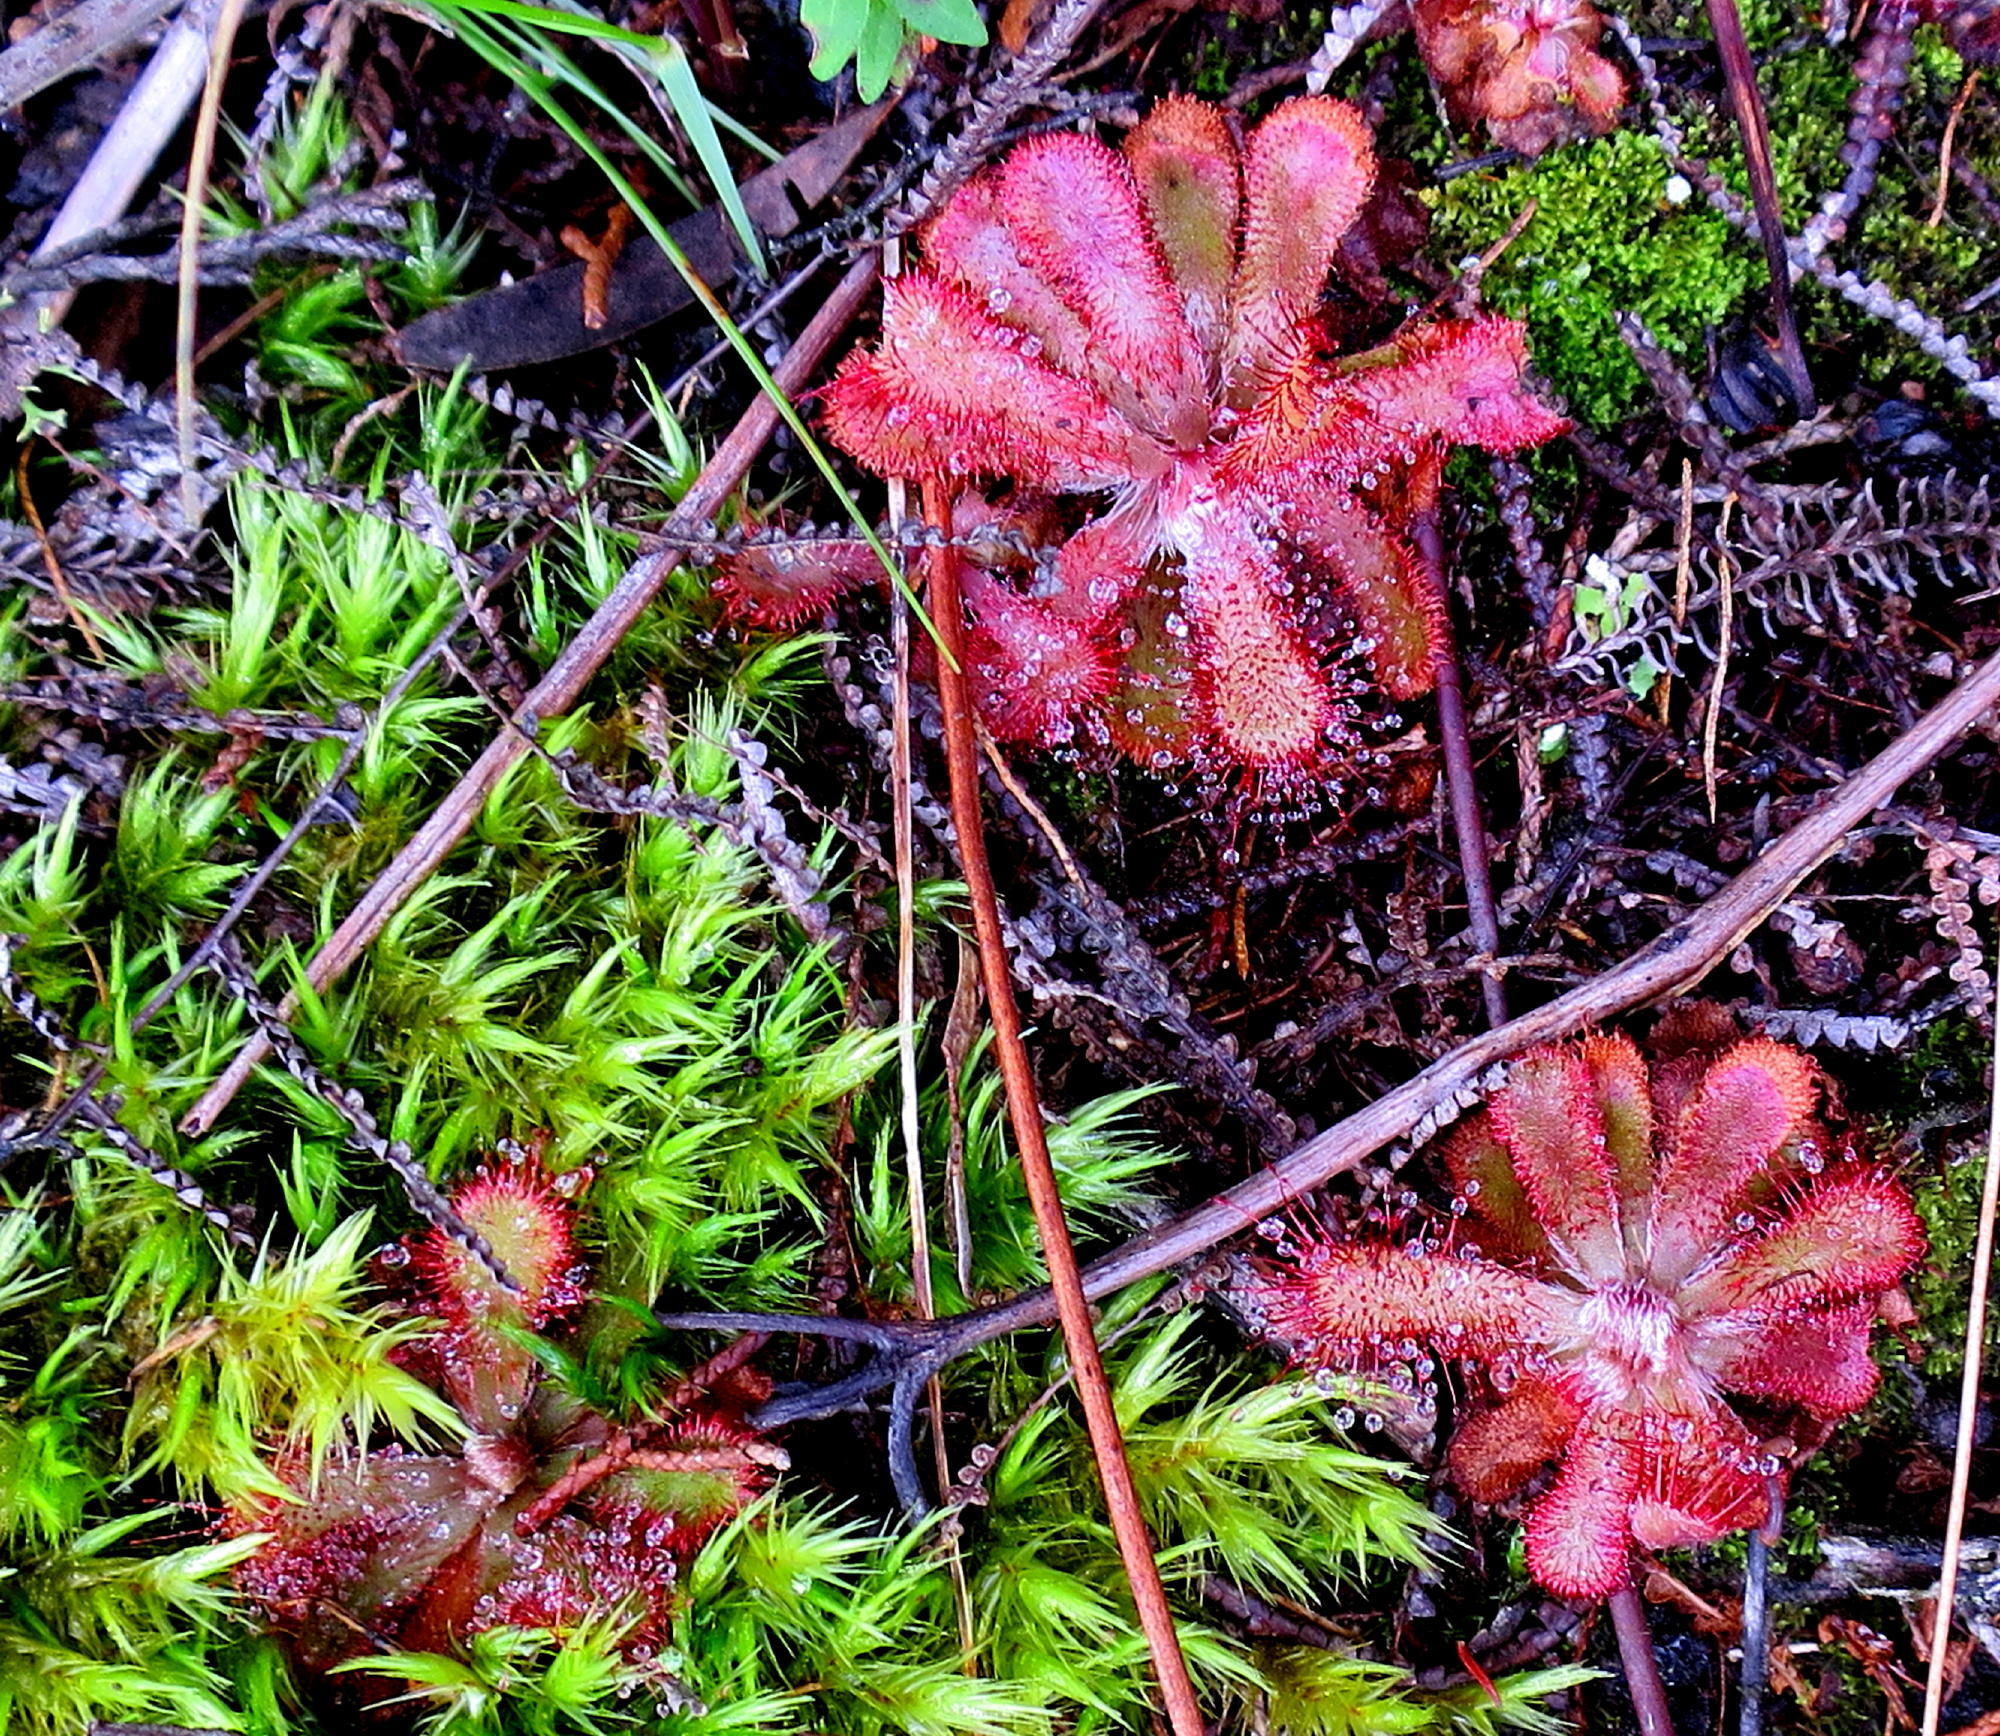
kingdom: Plantae
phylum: Tracheophyta
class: Magnoliopsida
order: Caryophyllales
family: Droseraceae
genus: Drosera
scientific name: Drosera aliciae
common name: Alice sundew
